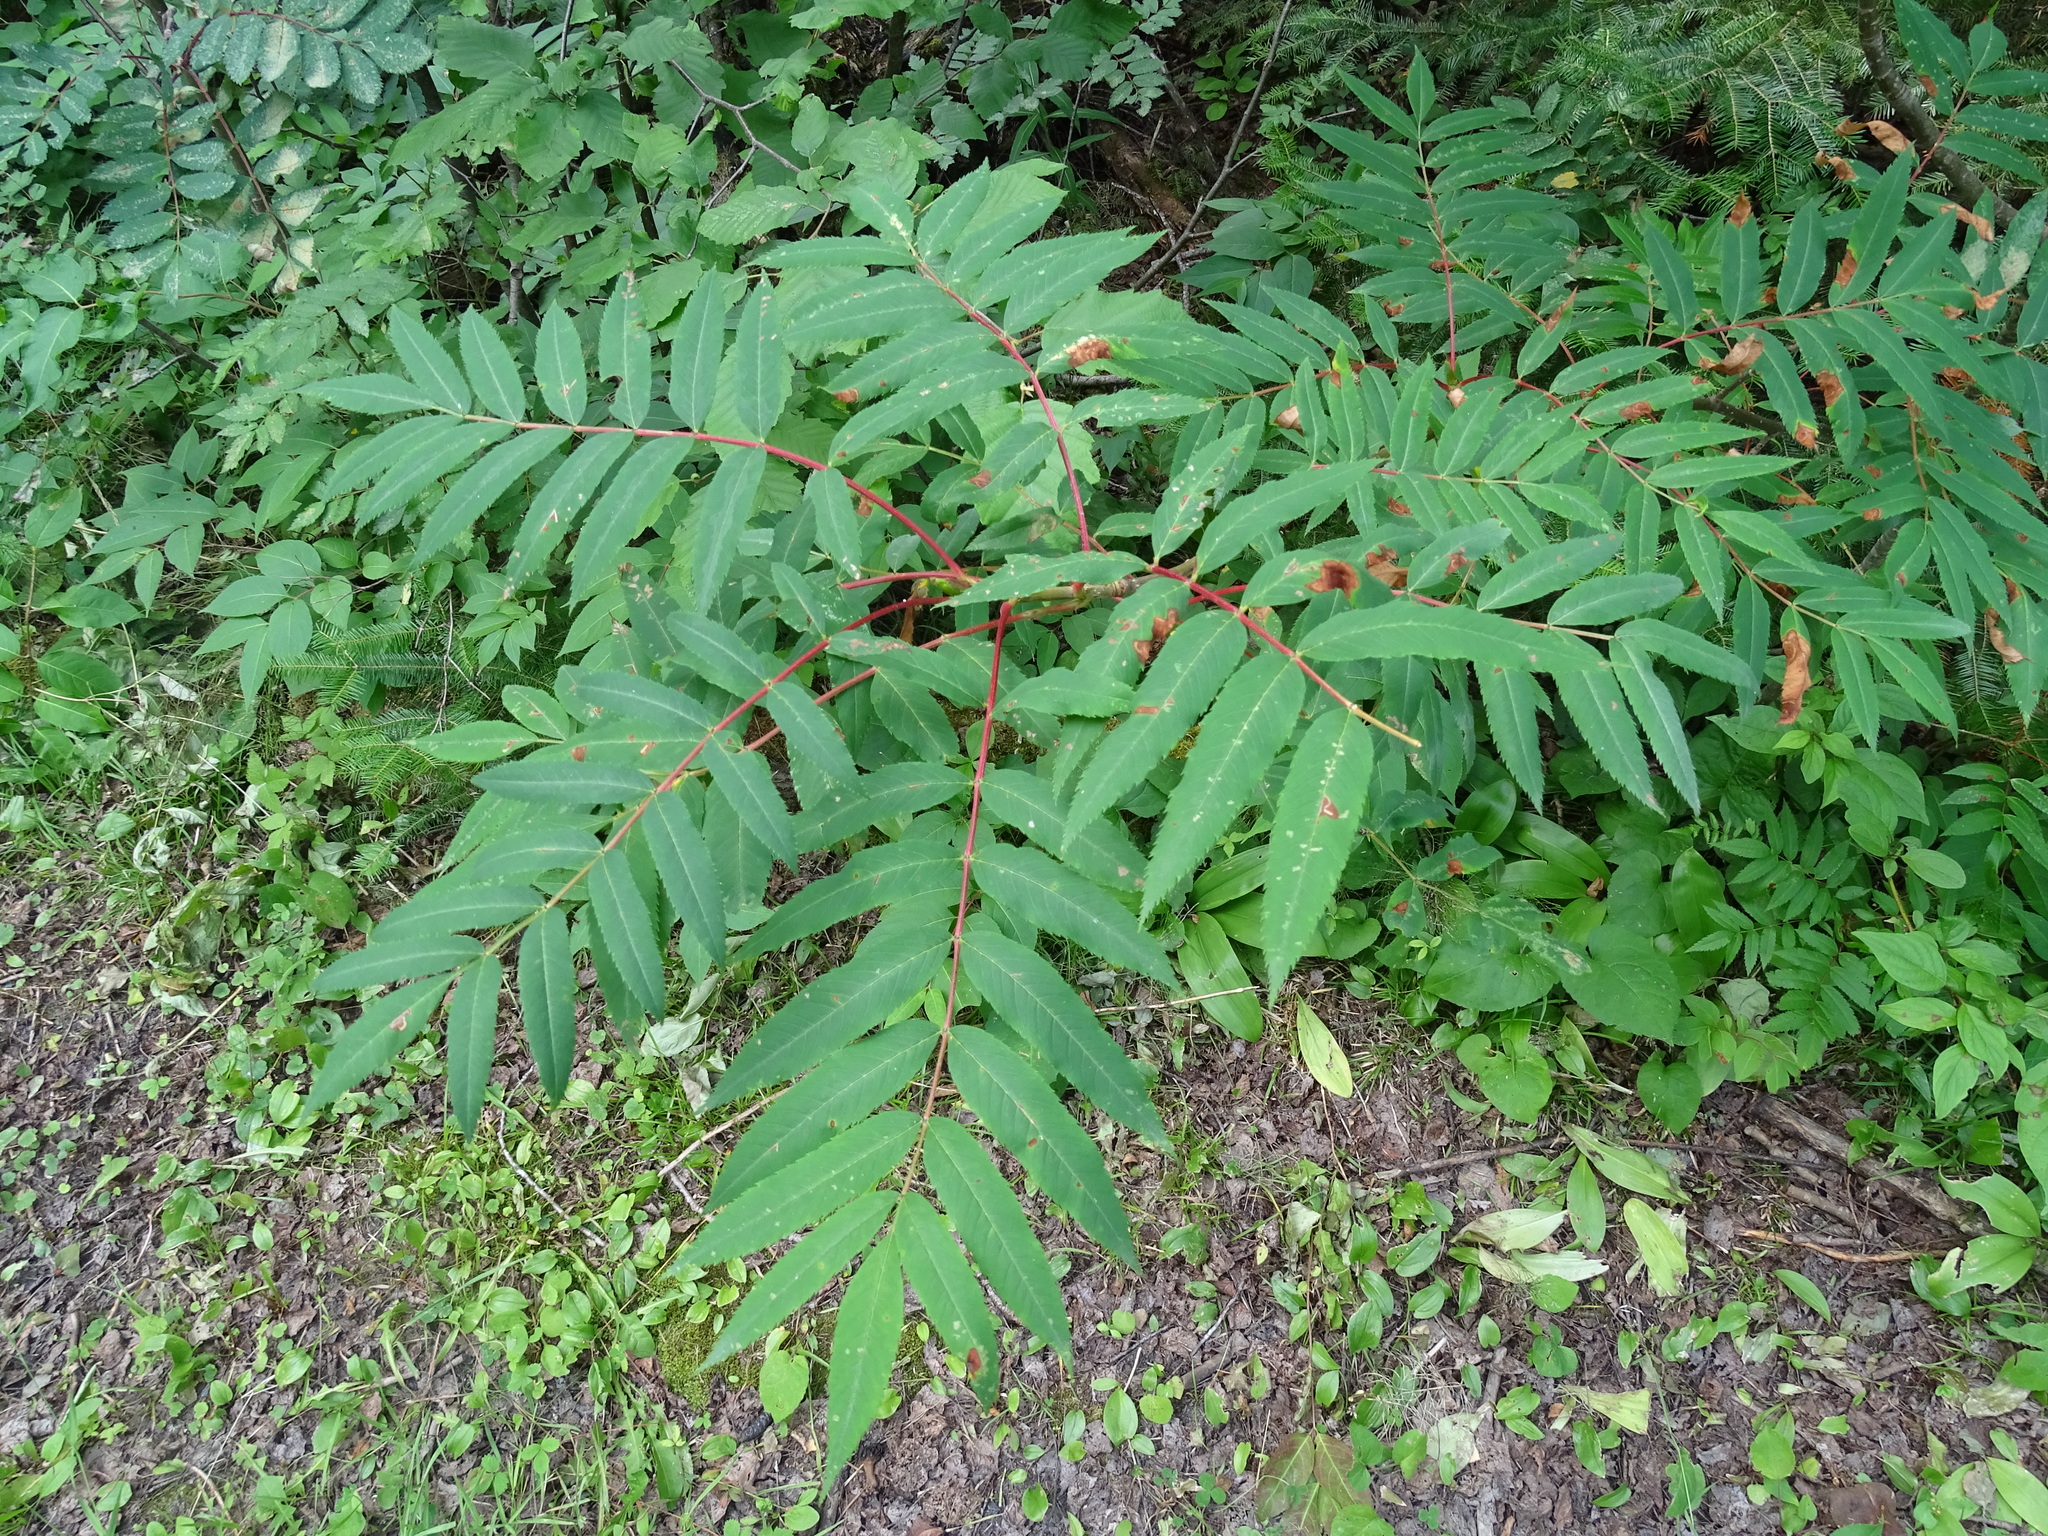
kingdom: Plantae
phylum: Tracheophyta
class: Magnoliopsida
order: Rosales
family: Rosaceae
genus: Sorbus
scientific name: Sorbus americana
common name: American mountain-ash
